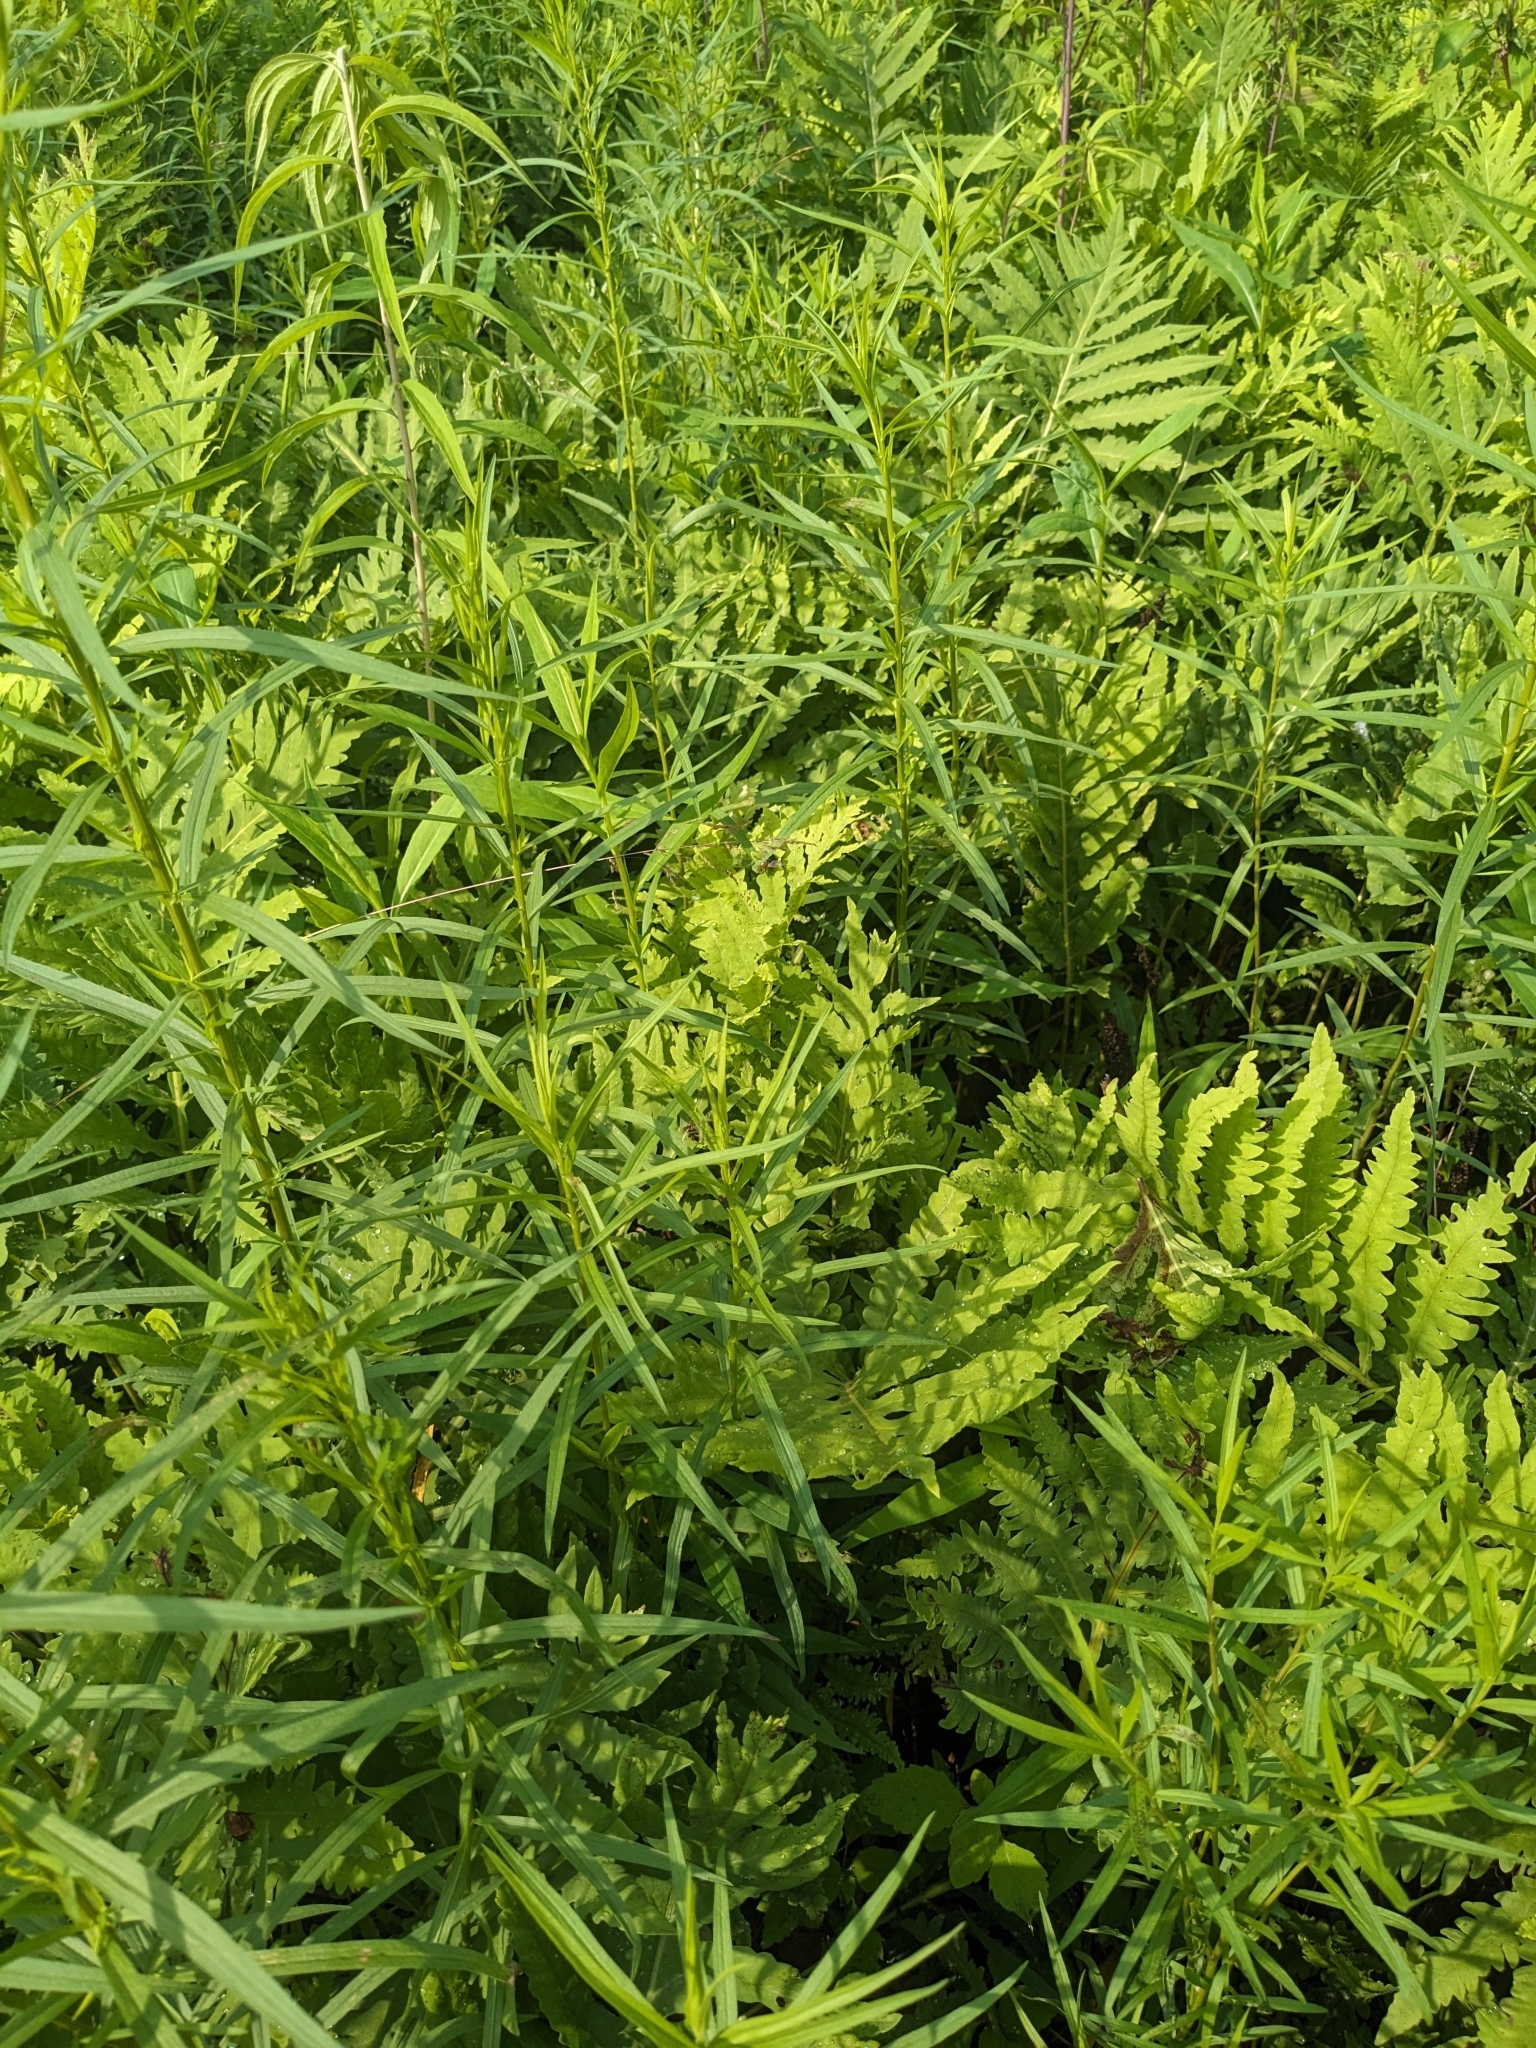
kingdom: Plantae
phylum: Tracheophyta
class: Magnoliopsida
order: Asterales
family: Asteraceae
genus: Euthamia
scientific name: Euthamia graminifolia
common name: Common goldentop
